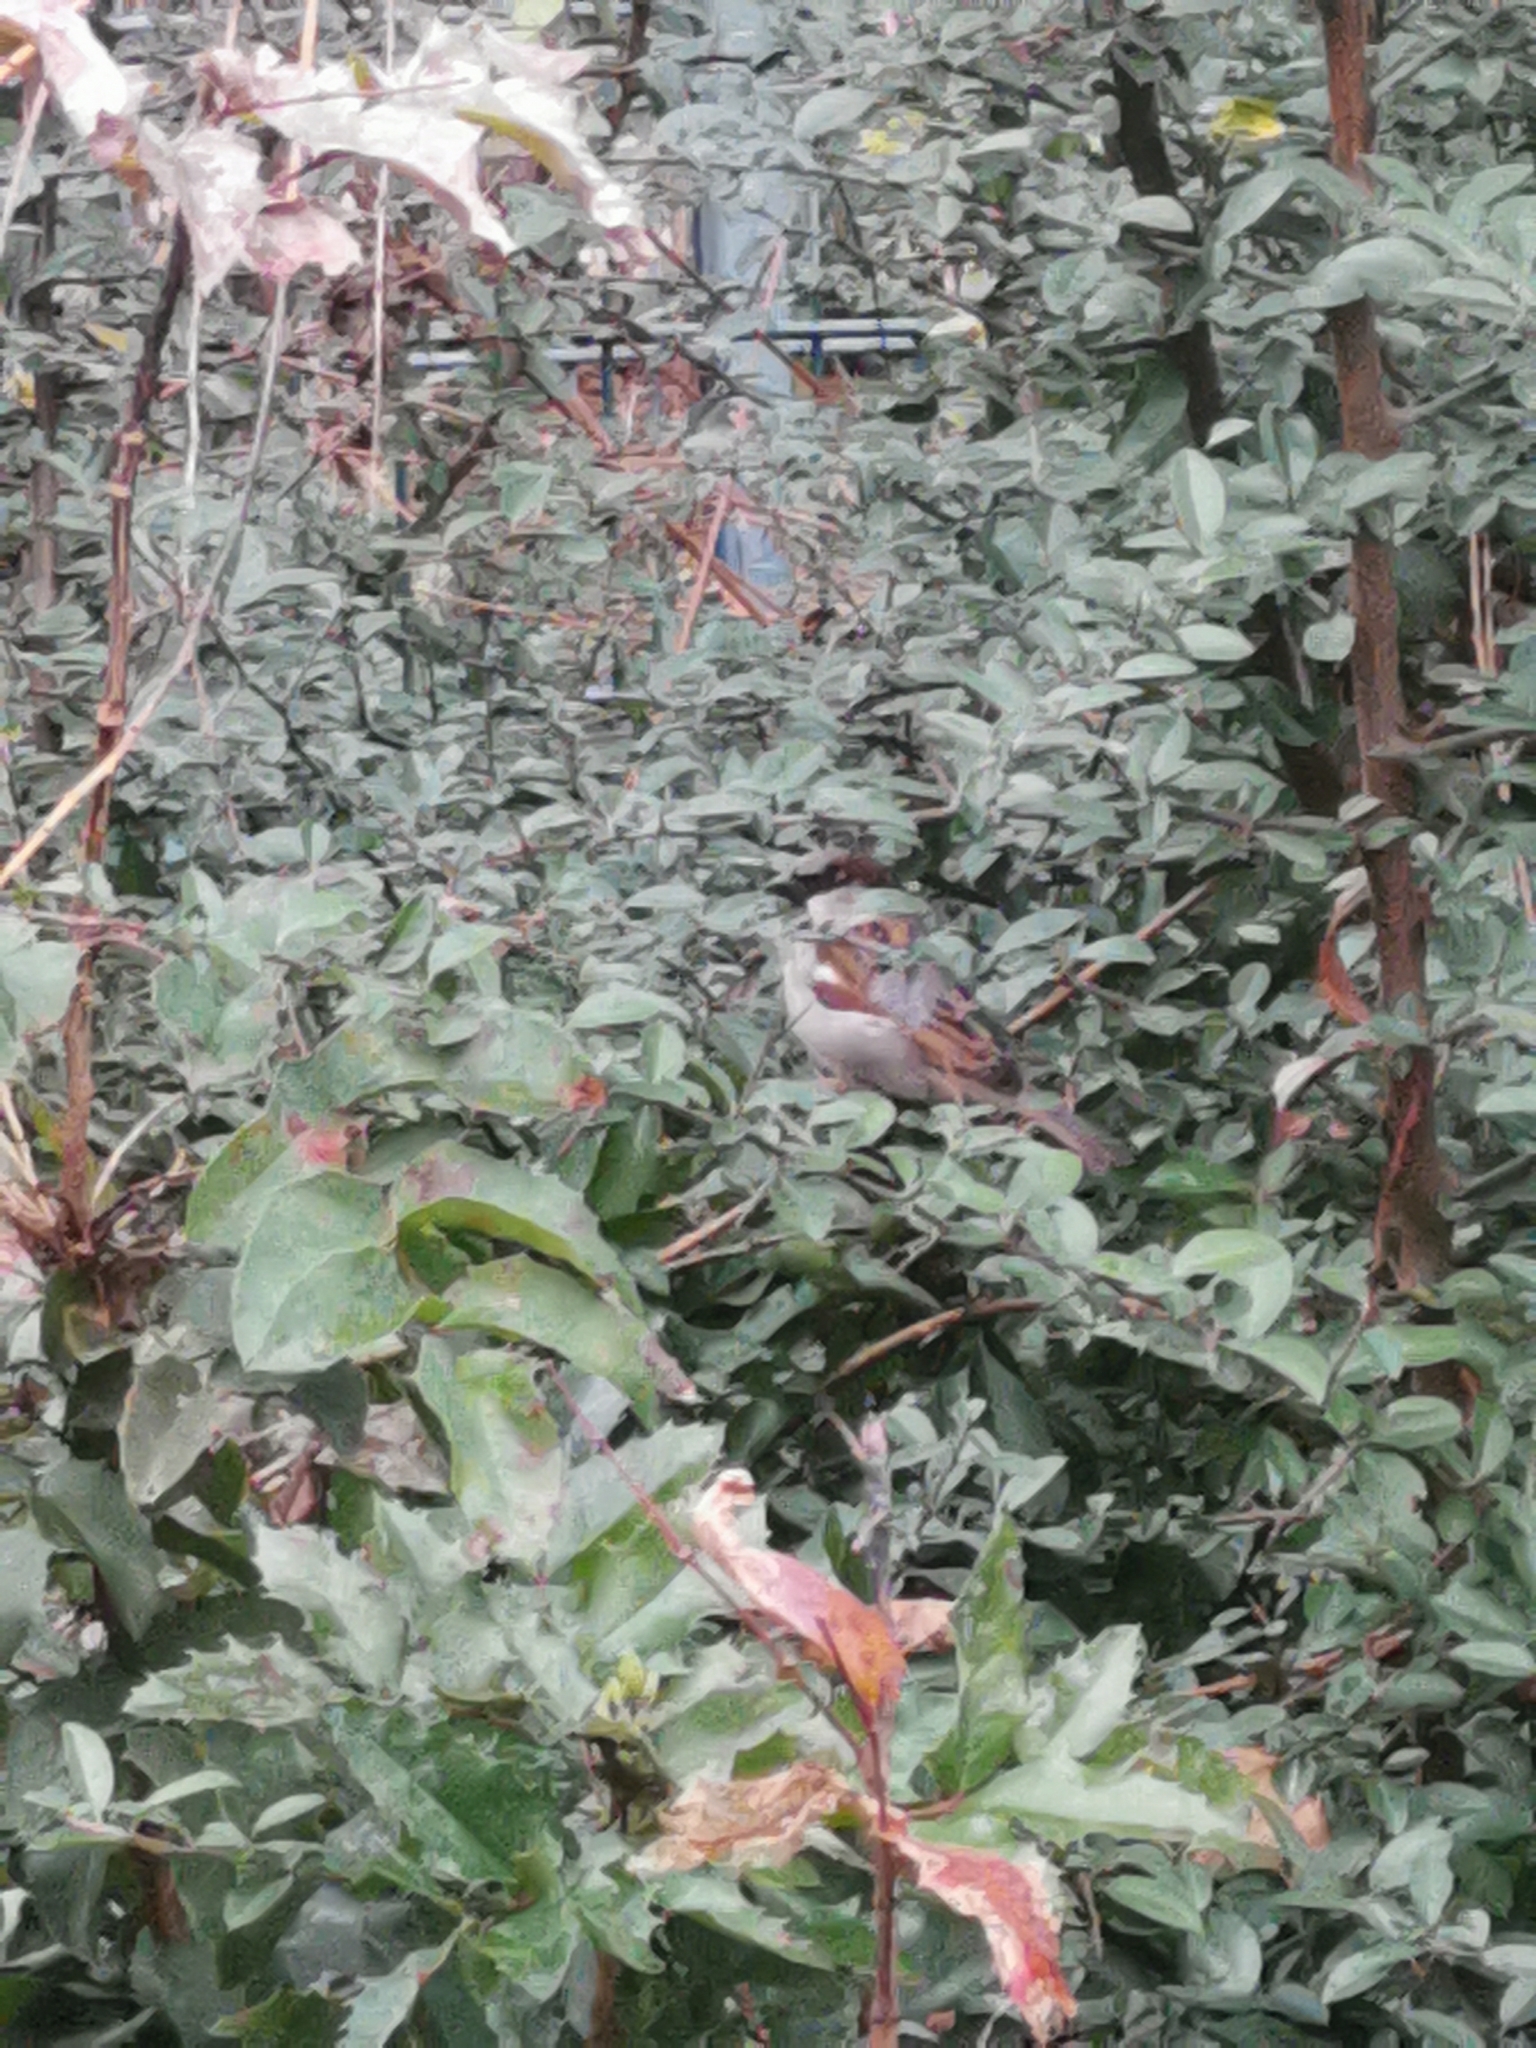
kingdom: Animalia
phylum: Chordata
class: Aves
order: Passeriformes
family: Passeridae
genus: Passer
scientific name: Passer domesticus
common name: House sparrow
